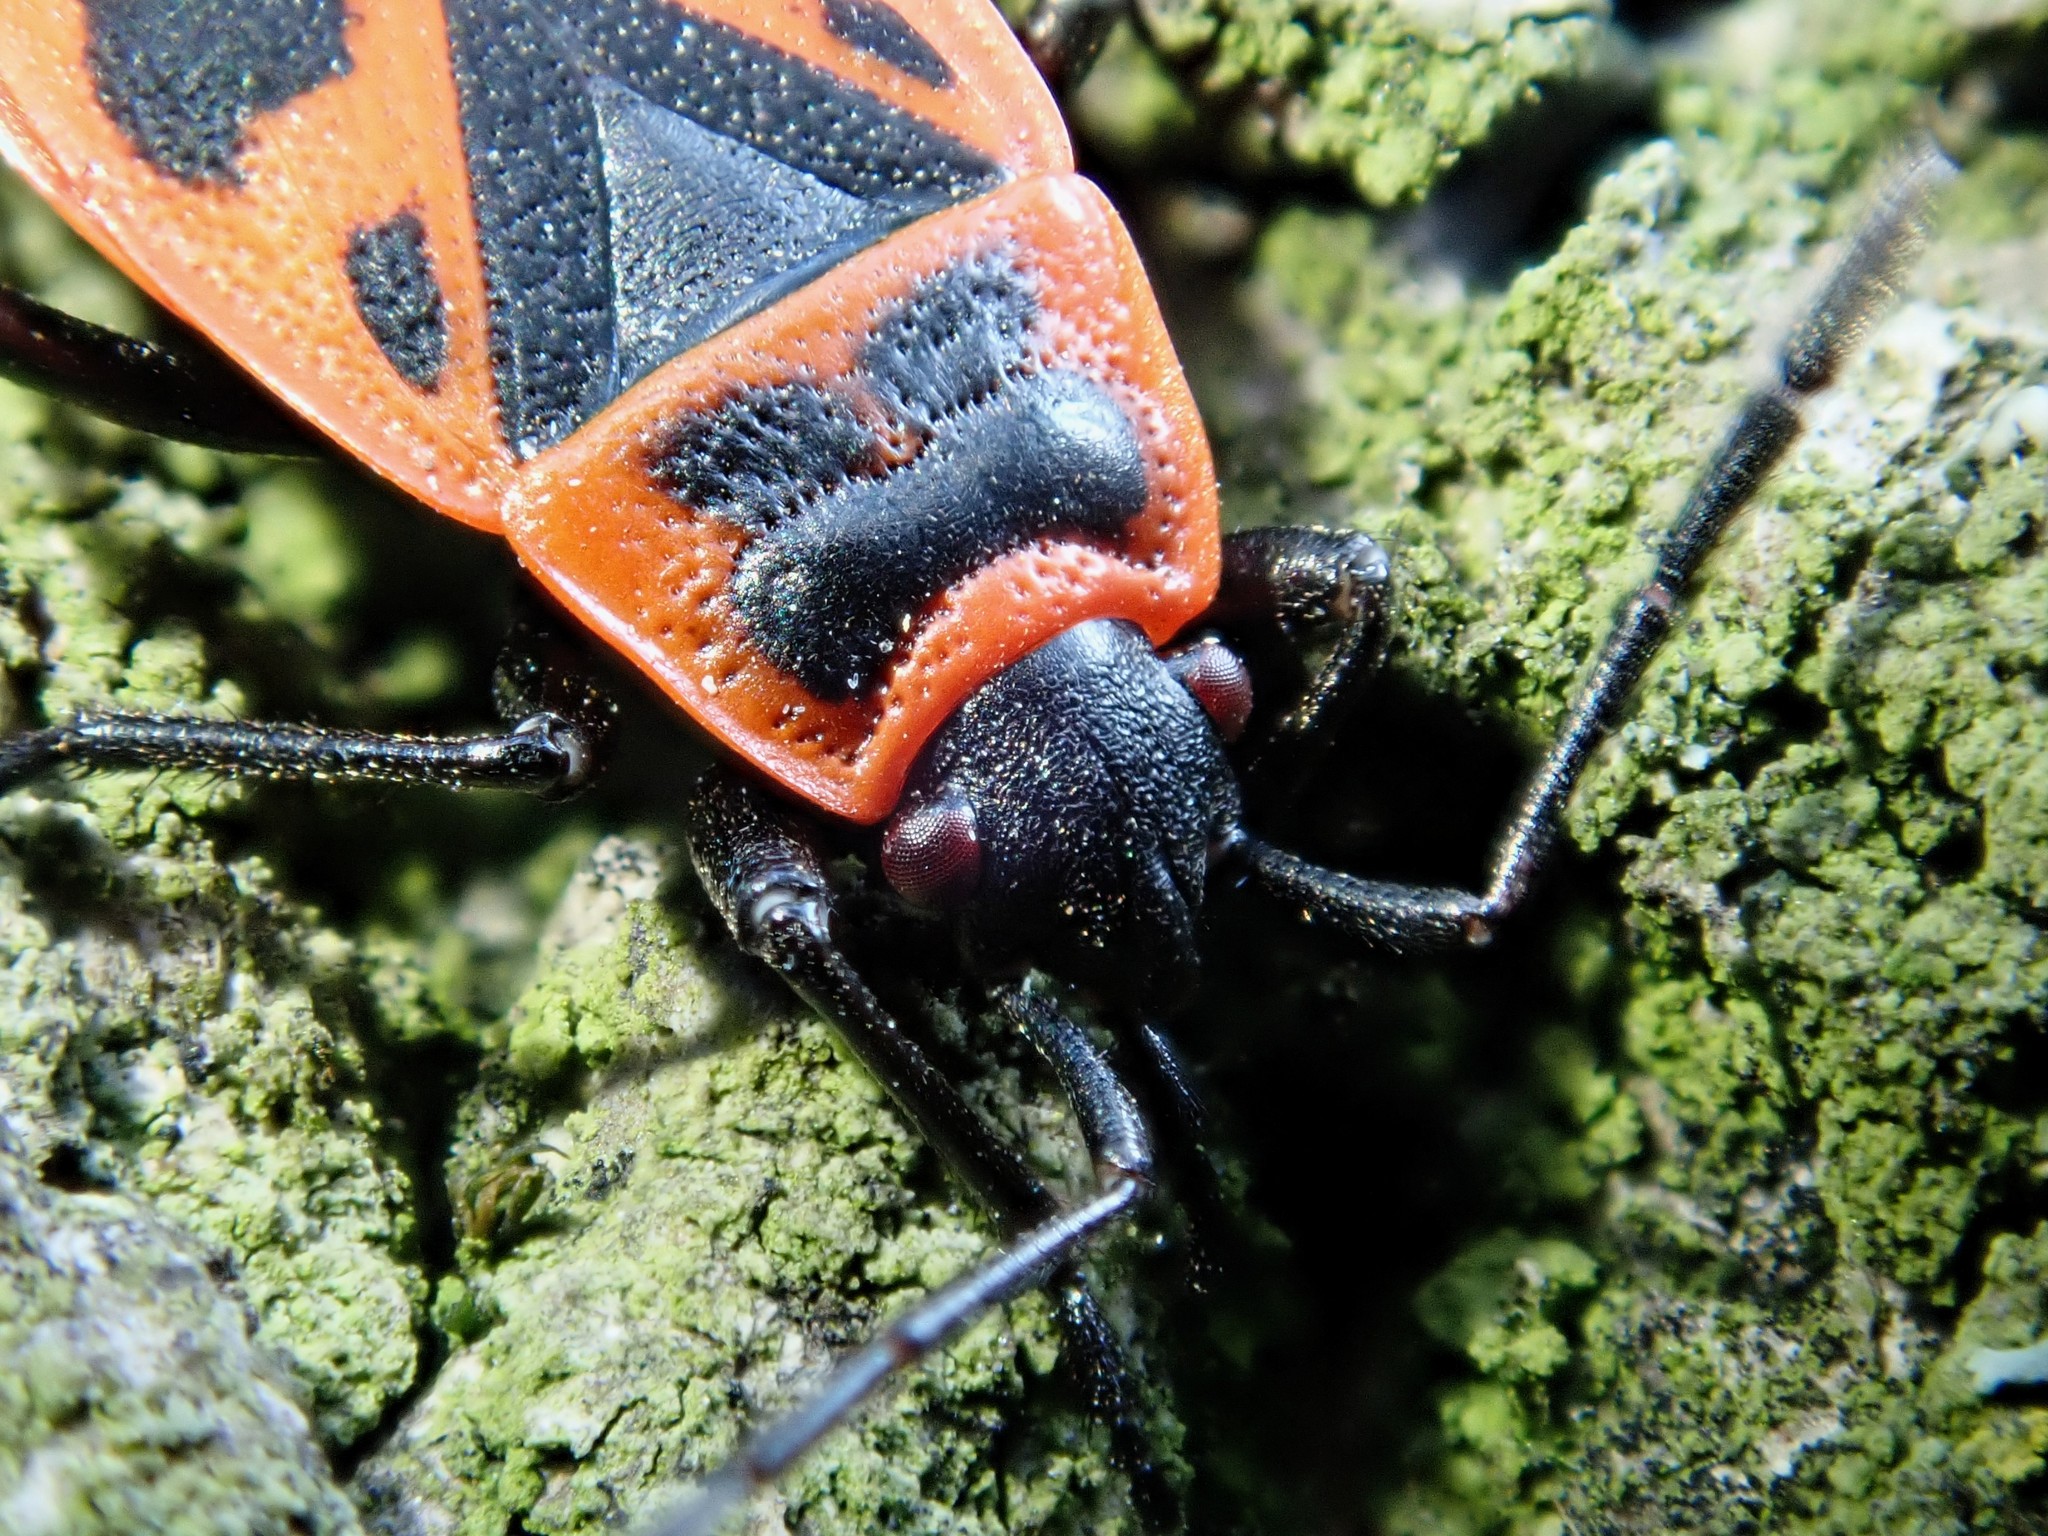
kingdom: Animalia
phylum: Arthropoda
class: Insecta
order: Hemiptera
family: Pyrrhocoridae
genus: Pyrrhocoris
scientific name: Pyrrhocoris apterus
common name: Firebug
